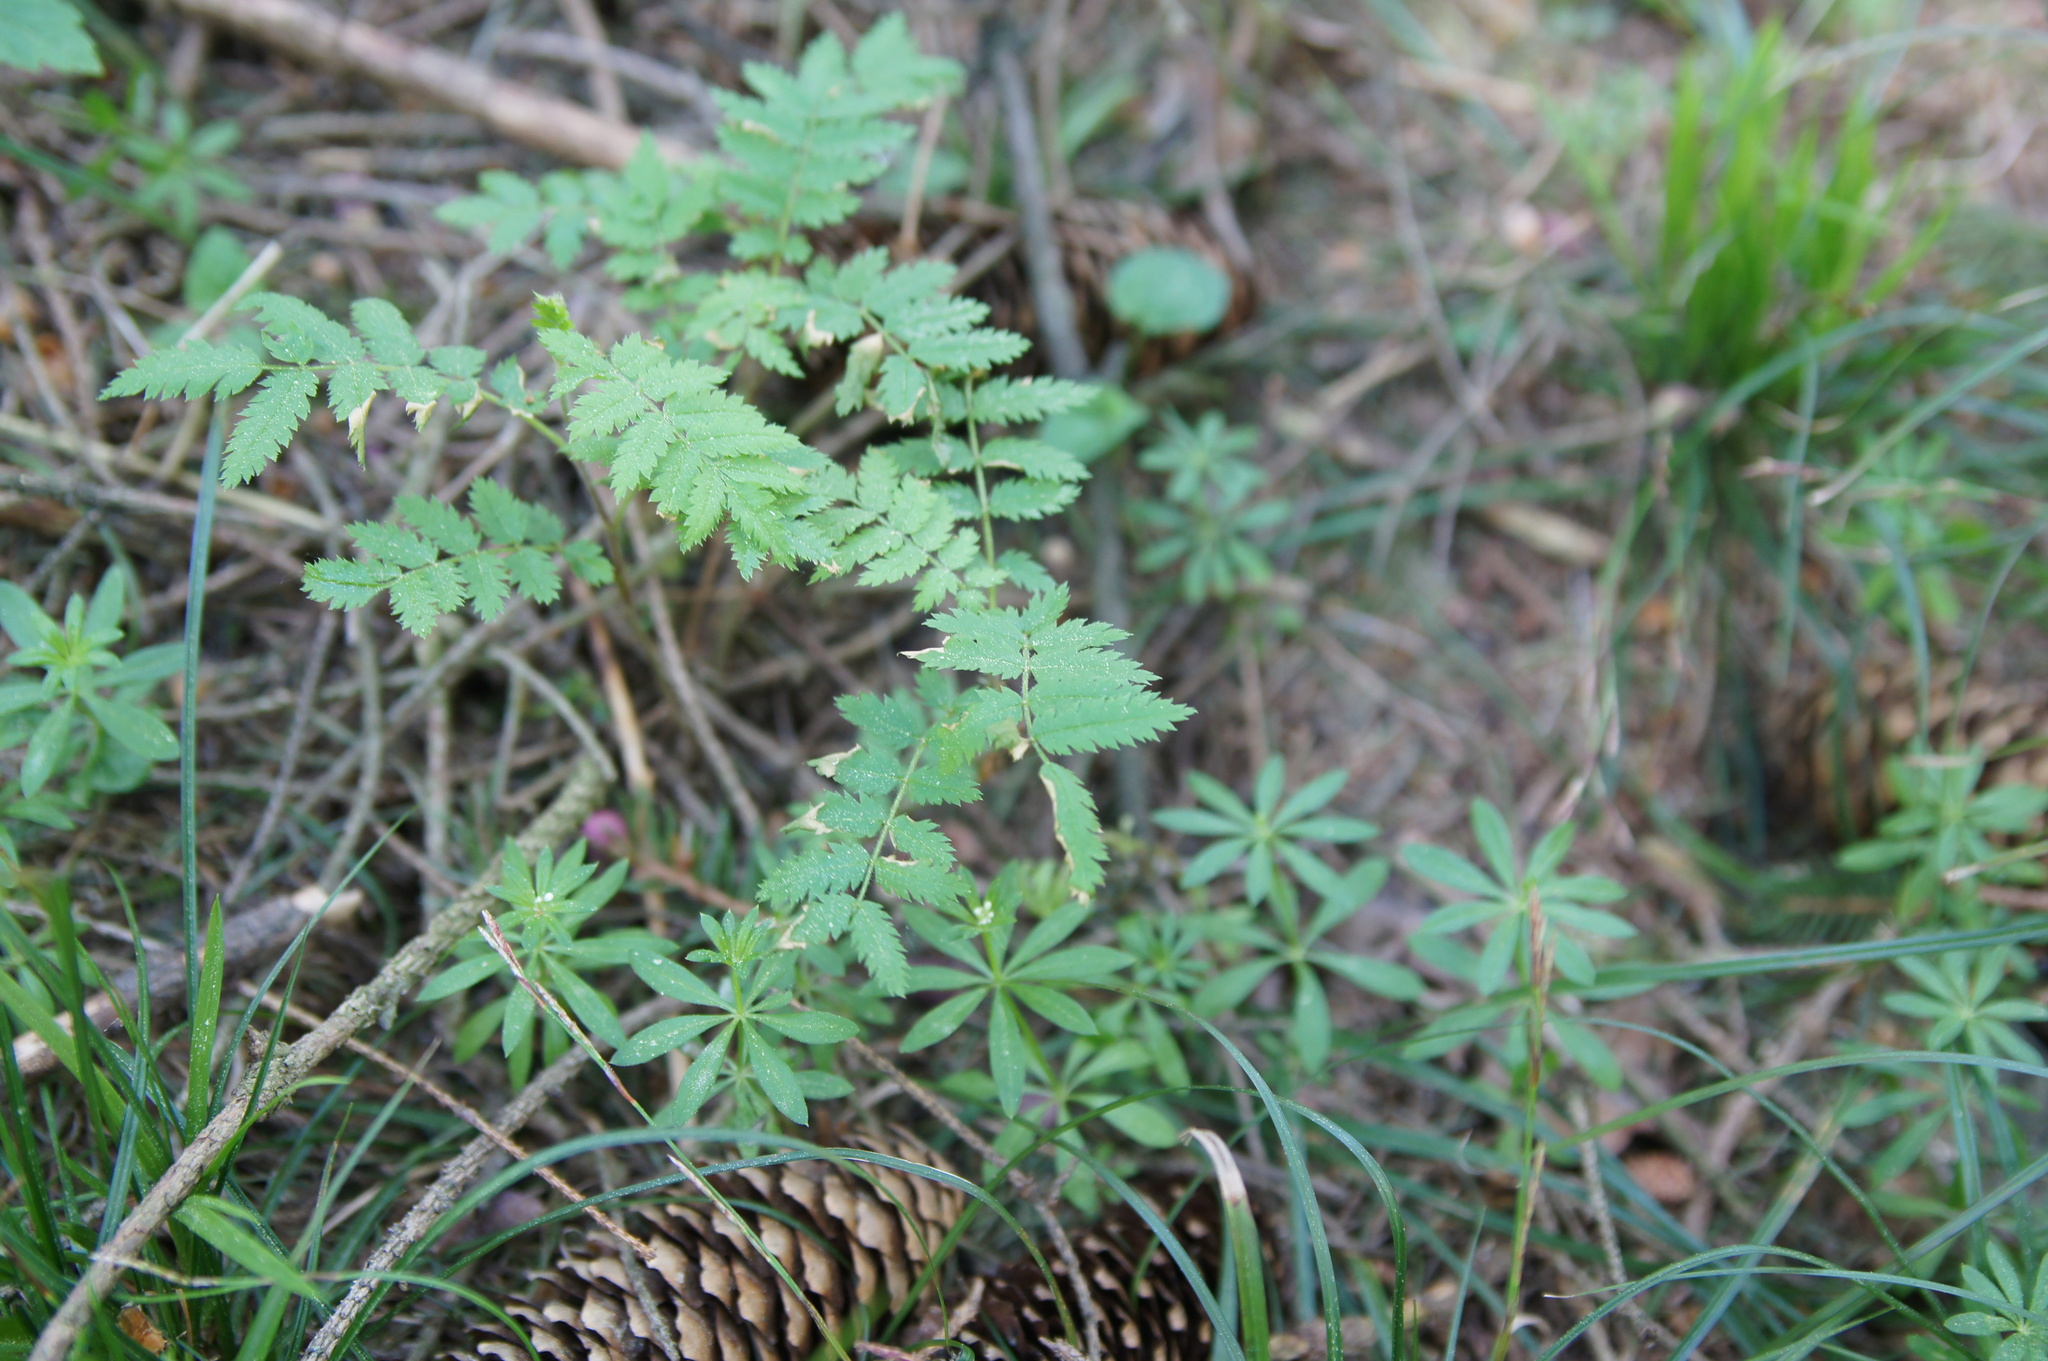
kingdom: Plantae
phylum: Tracheophyta
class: Magnoliopsida
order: Rosales
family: Rosaceae
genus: Sorbus
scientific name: Sorbus aucuparia
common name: Rowan
